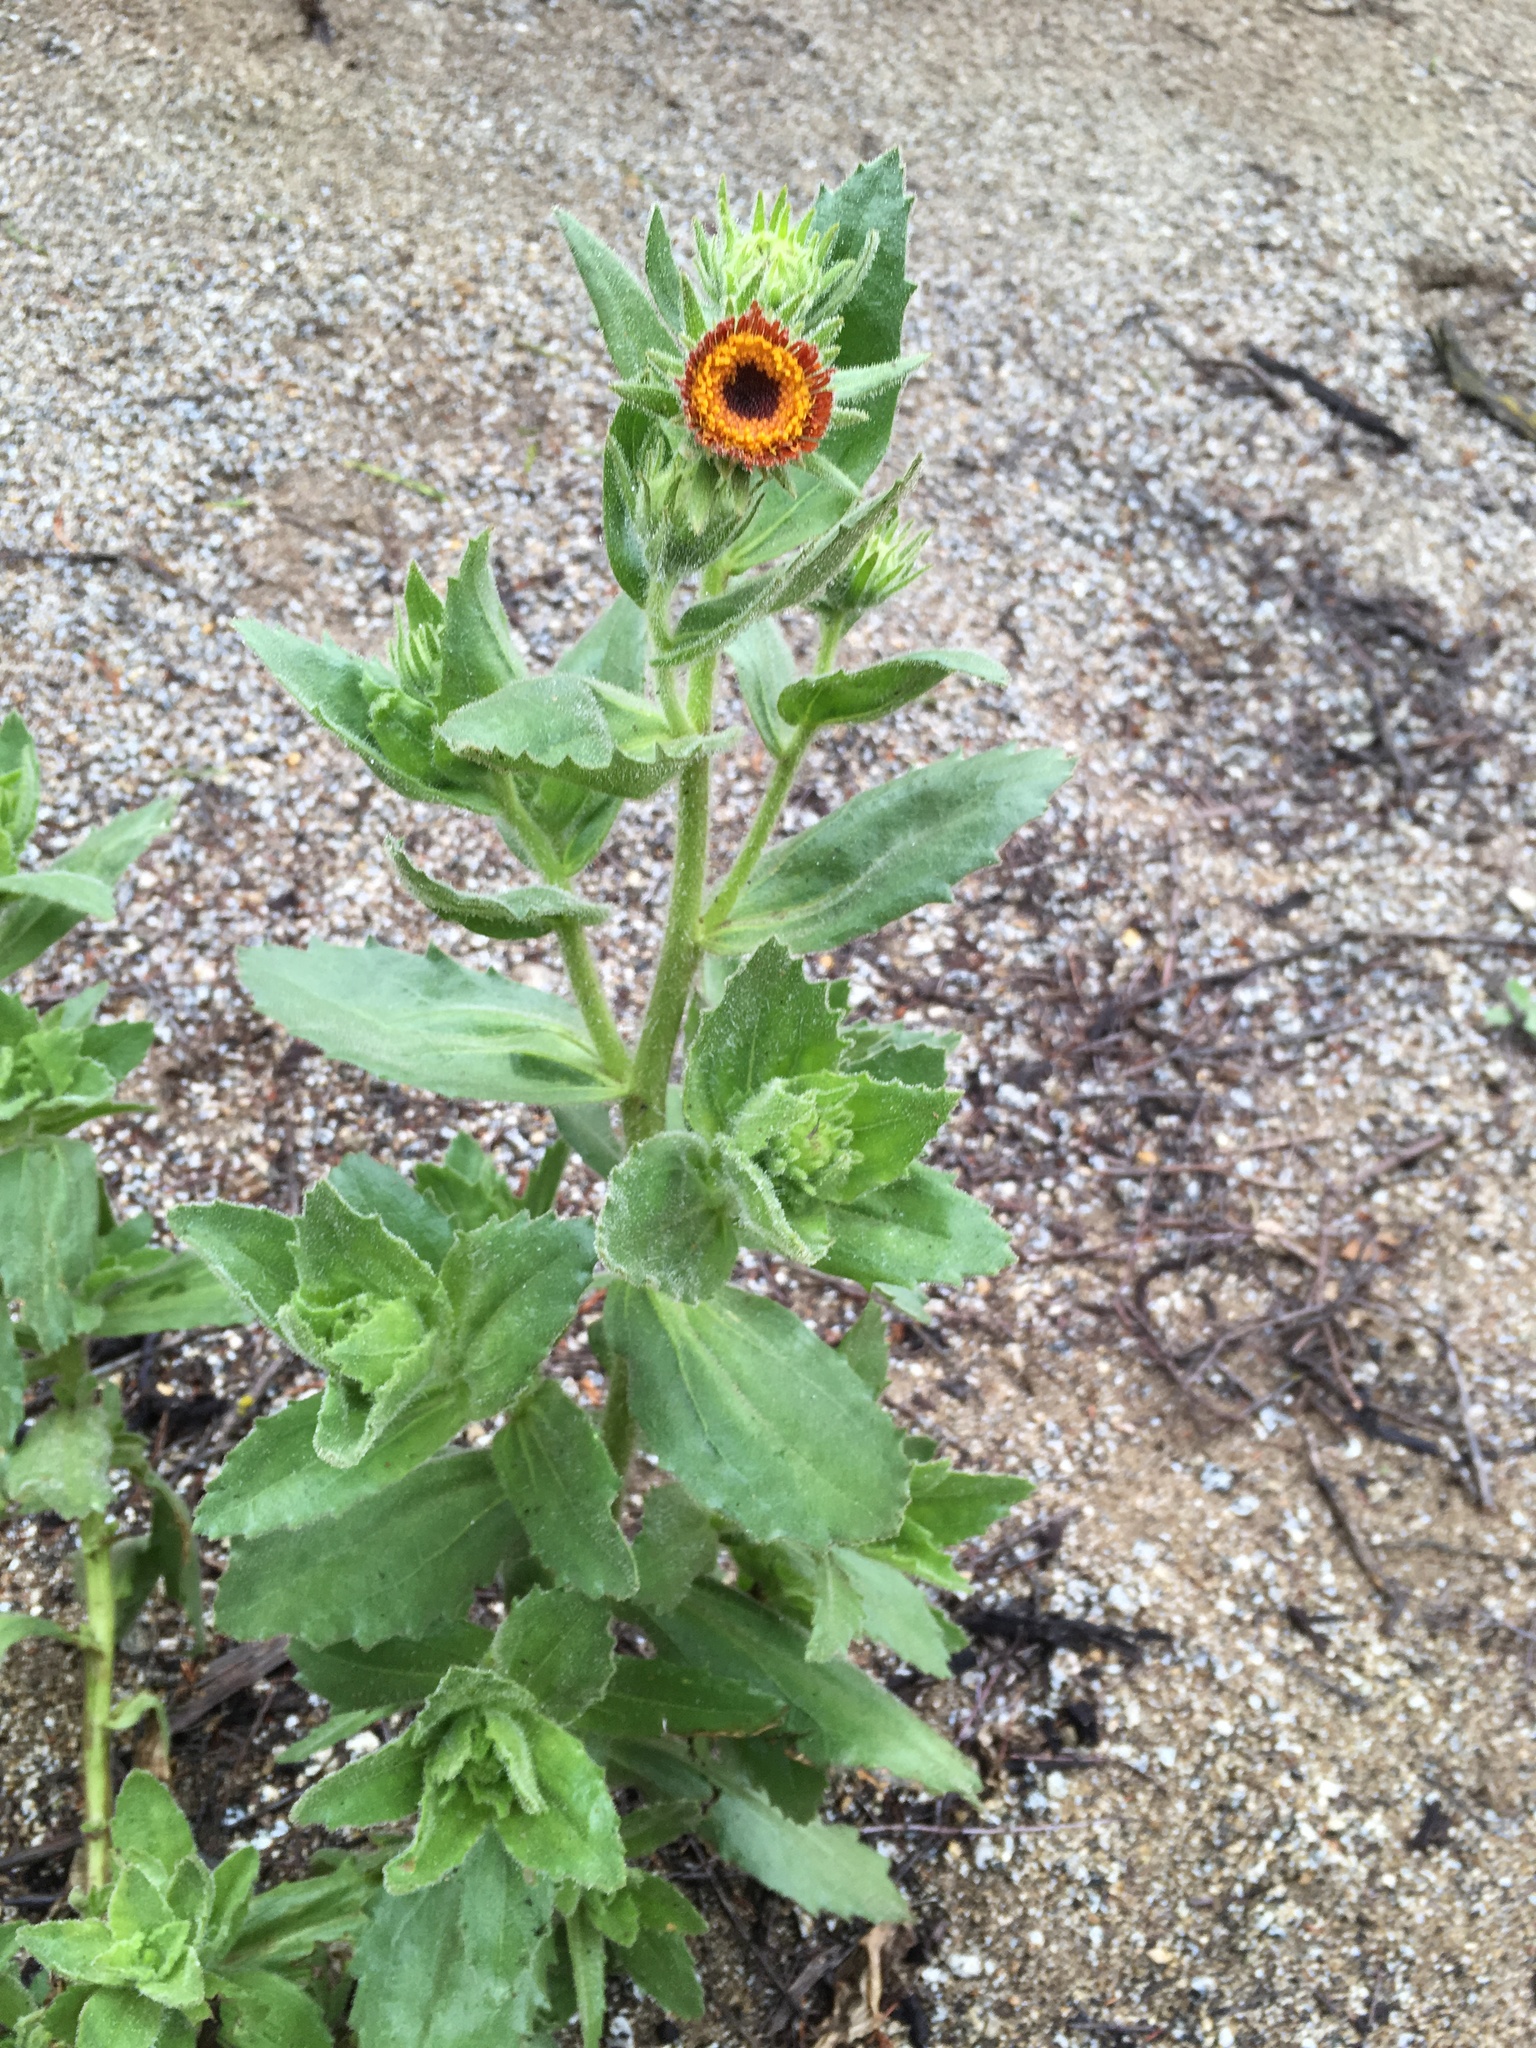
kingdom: Plantae
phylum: Tracheophyta
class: Magnoliopsida
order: Asterales
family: Asteraceae
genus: Hulsea
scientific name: Hulsea heterochroma
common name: Redray alpinegold
